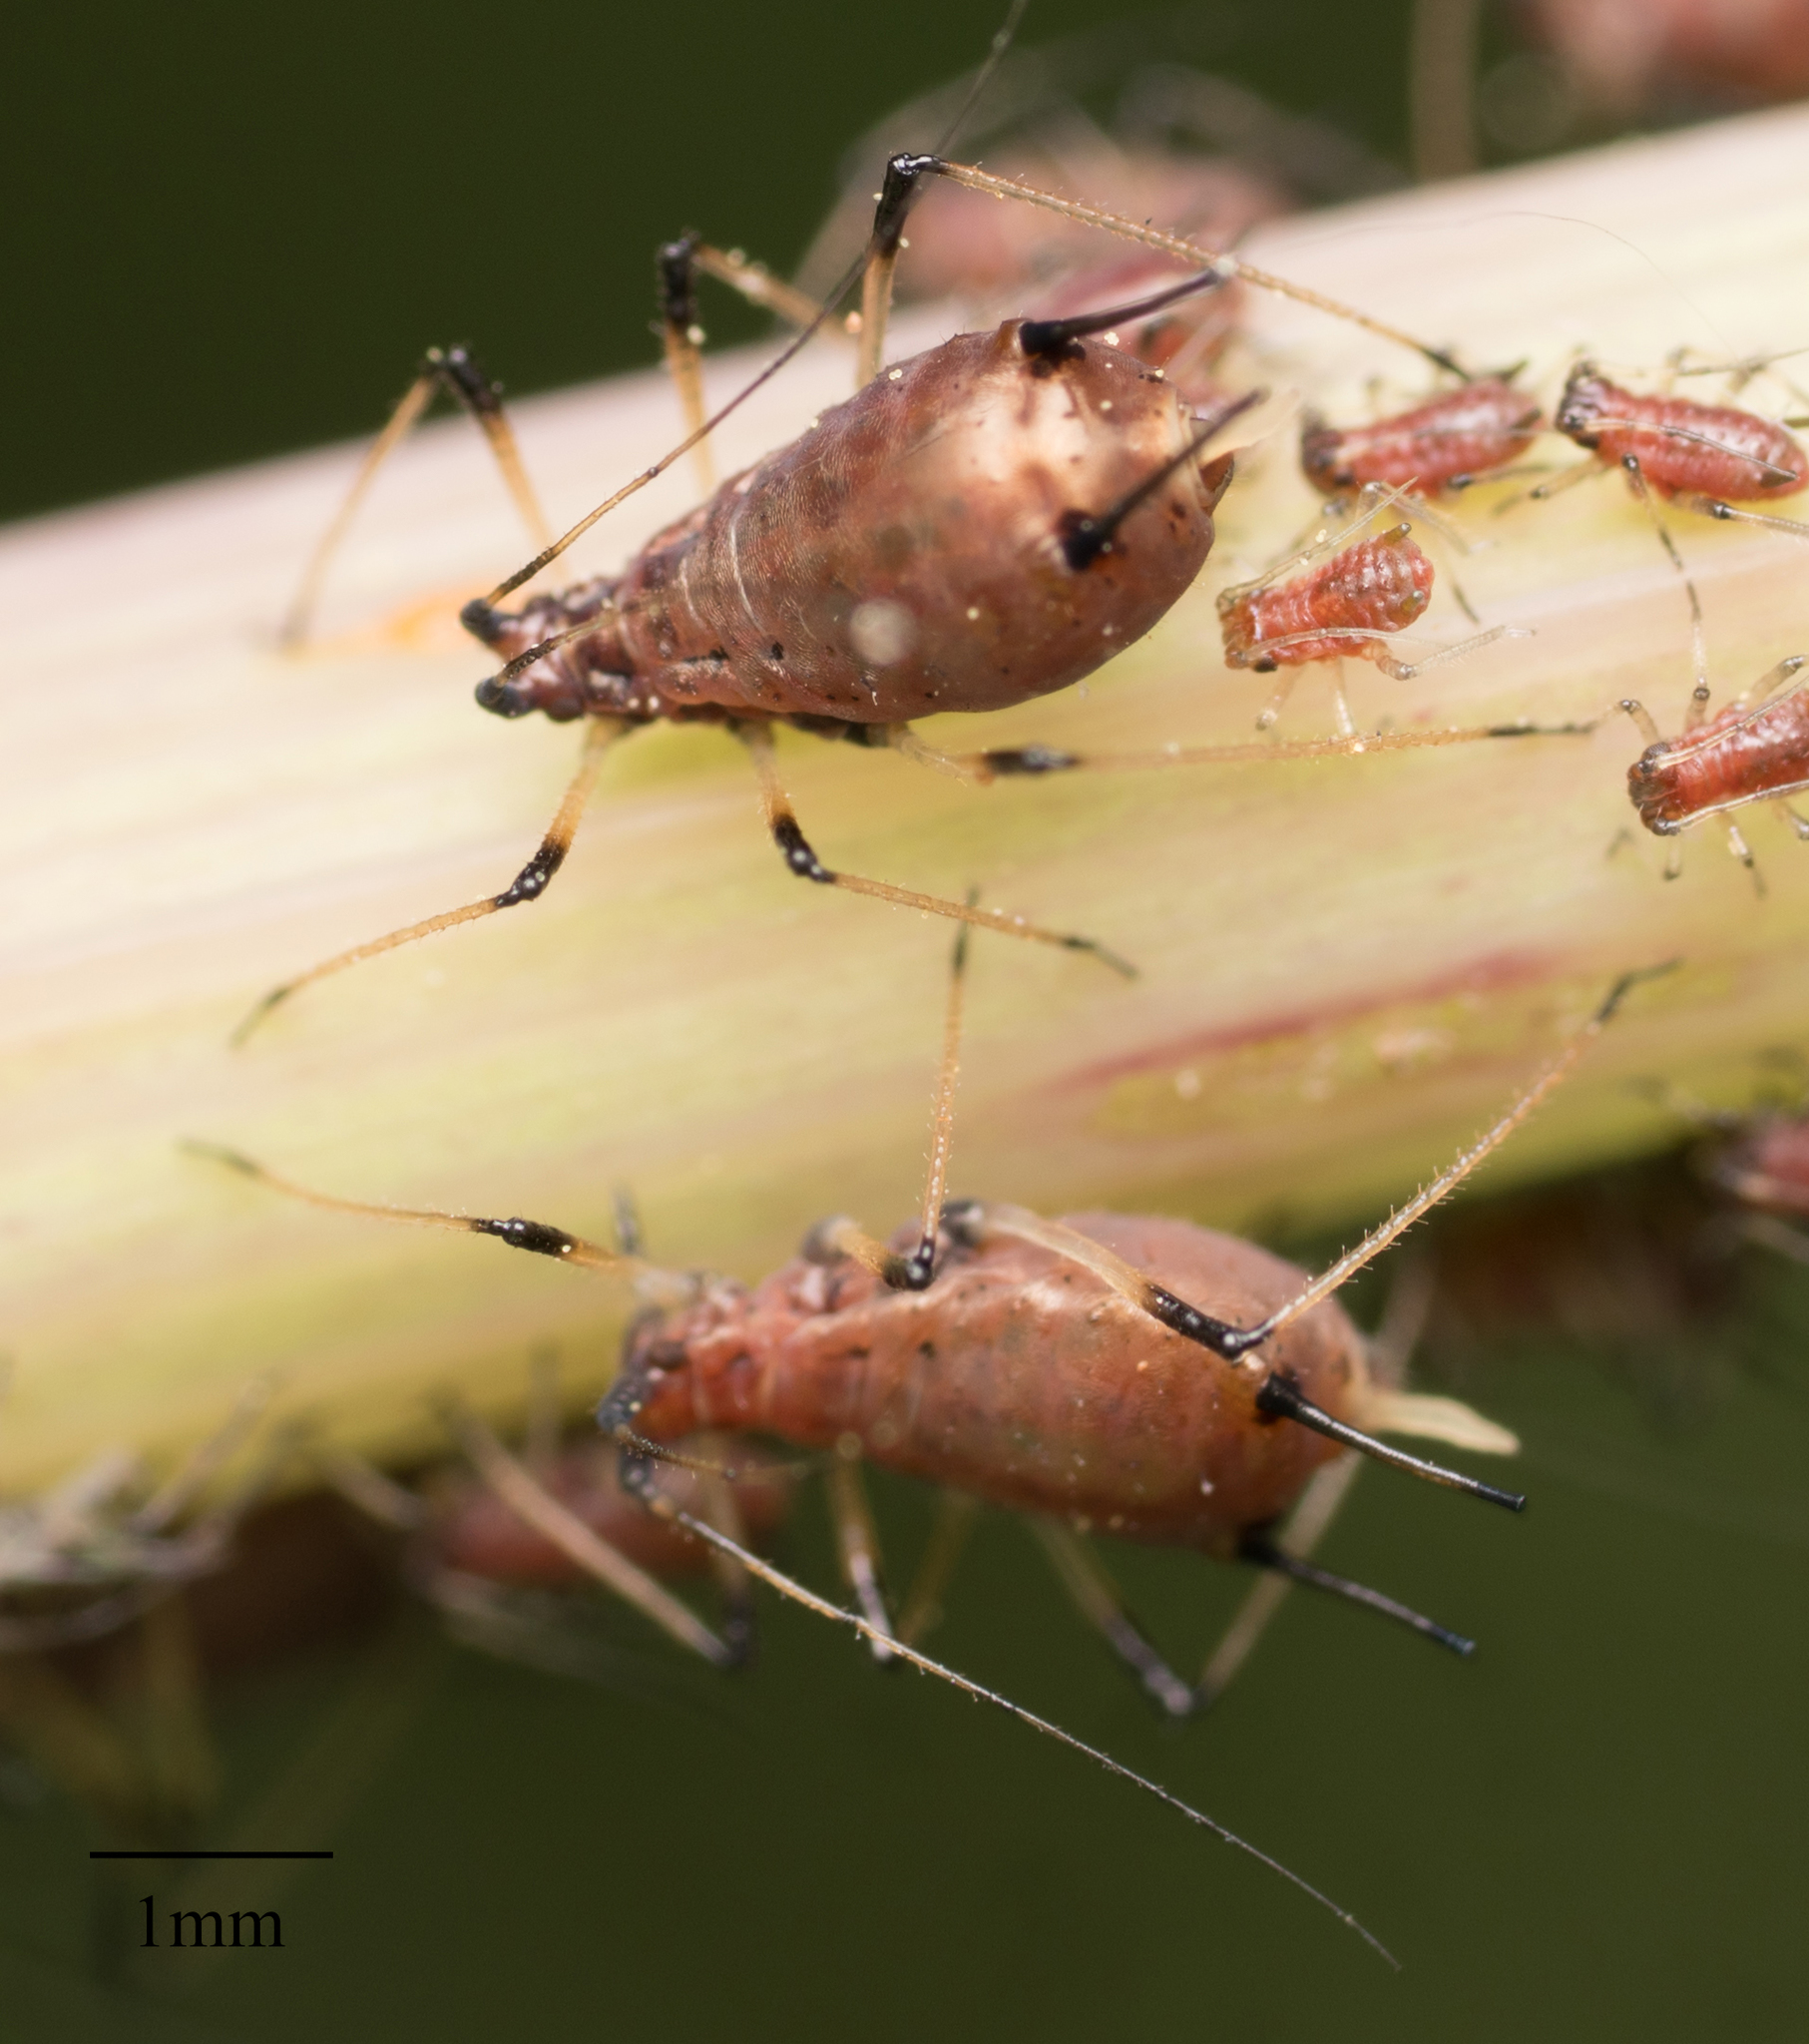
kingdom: Animalia
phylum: Arthropoda
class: Insecta
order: Hemiptera
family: Aphididae
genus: Uroleucon
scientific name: Uroleucon sonchi
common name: Large sowthistle aphid
